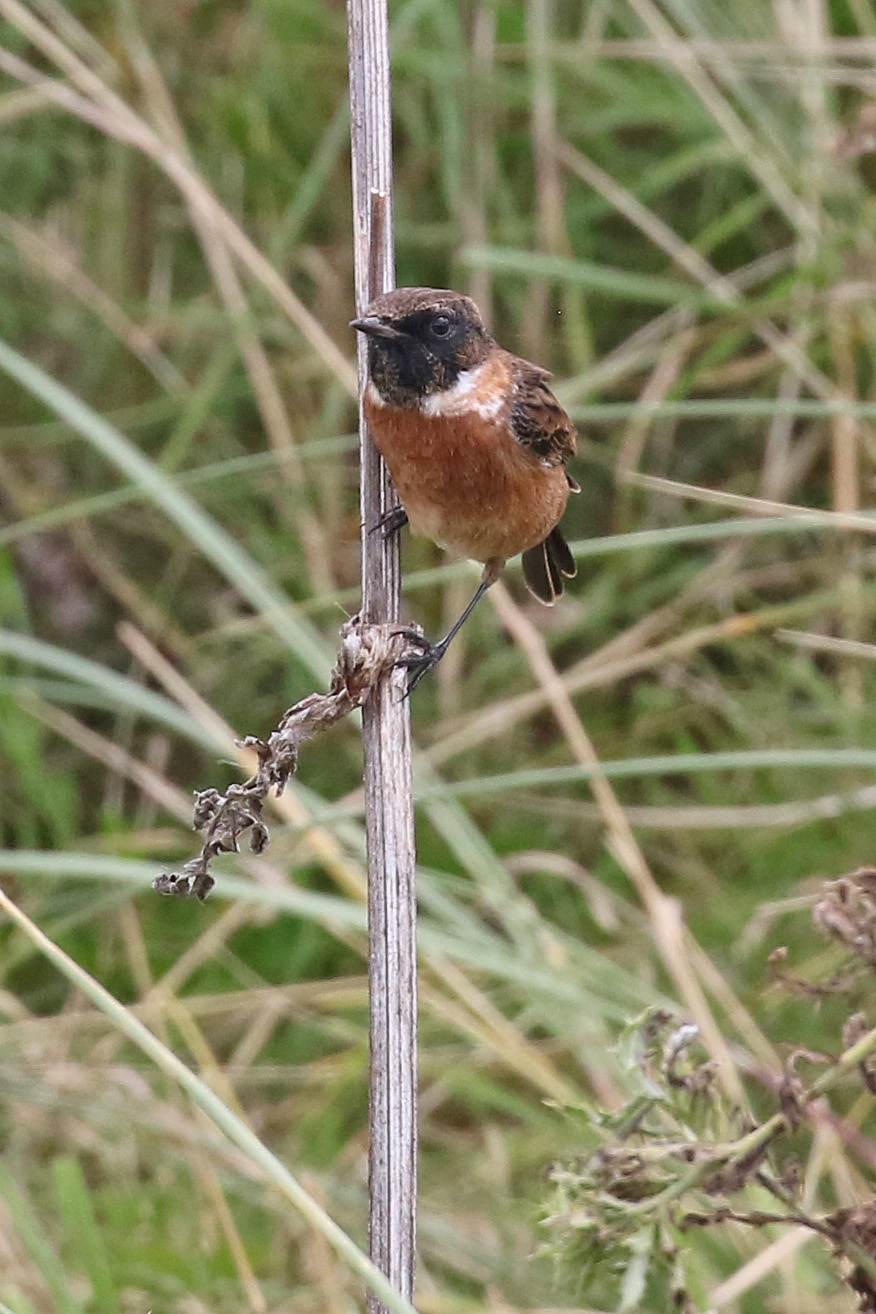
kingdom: Animalia
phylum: Chordata
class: Aves
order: Passeriformes
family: Muscicapidae
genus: Saxicola
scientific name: Saxicola rubicola
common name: European stonechat
